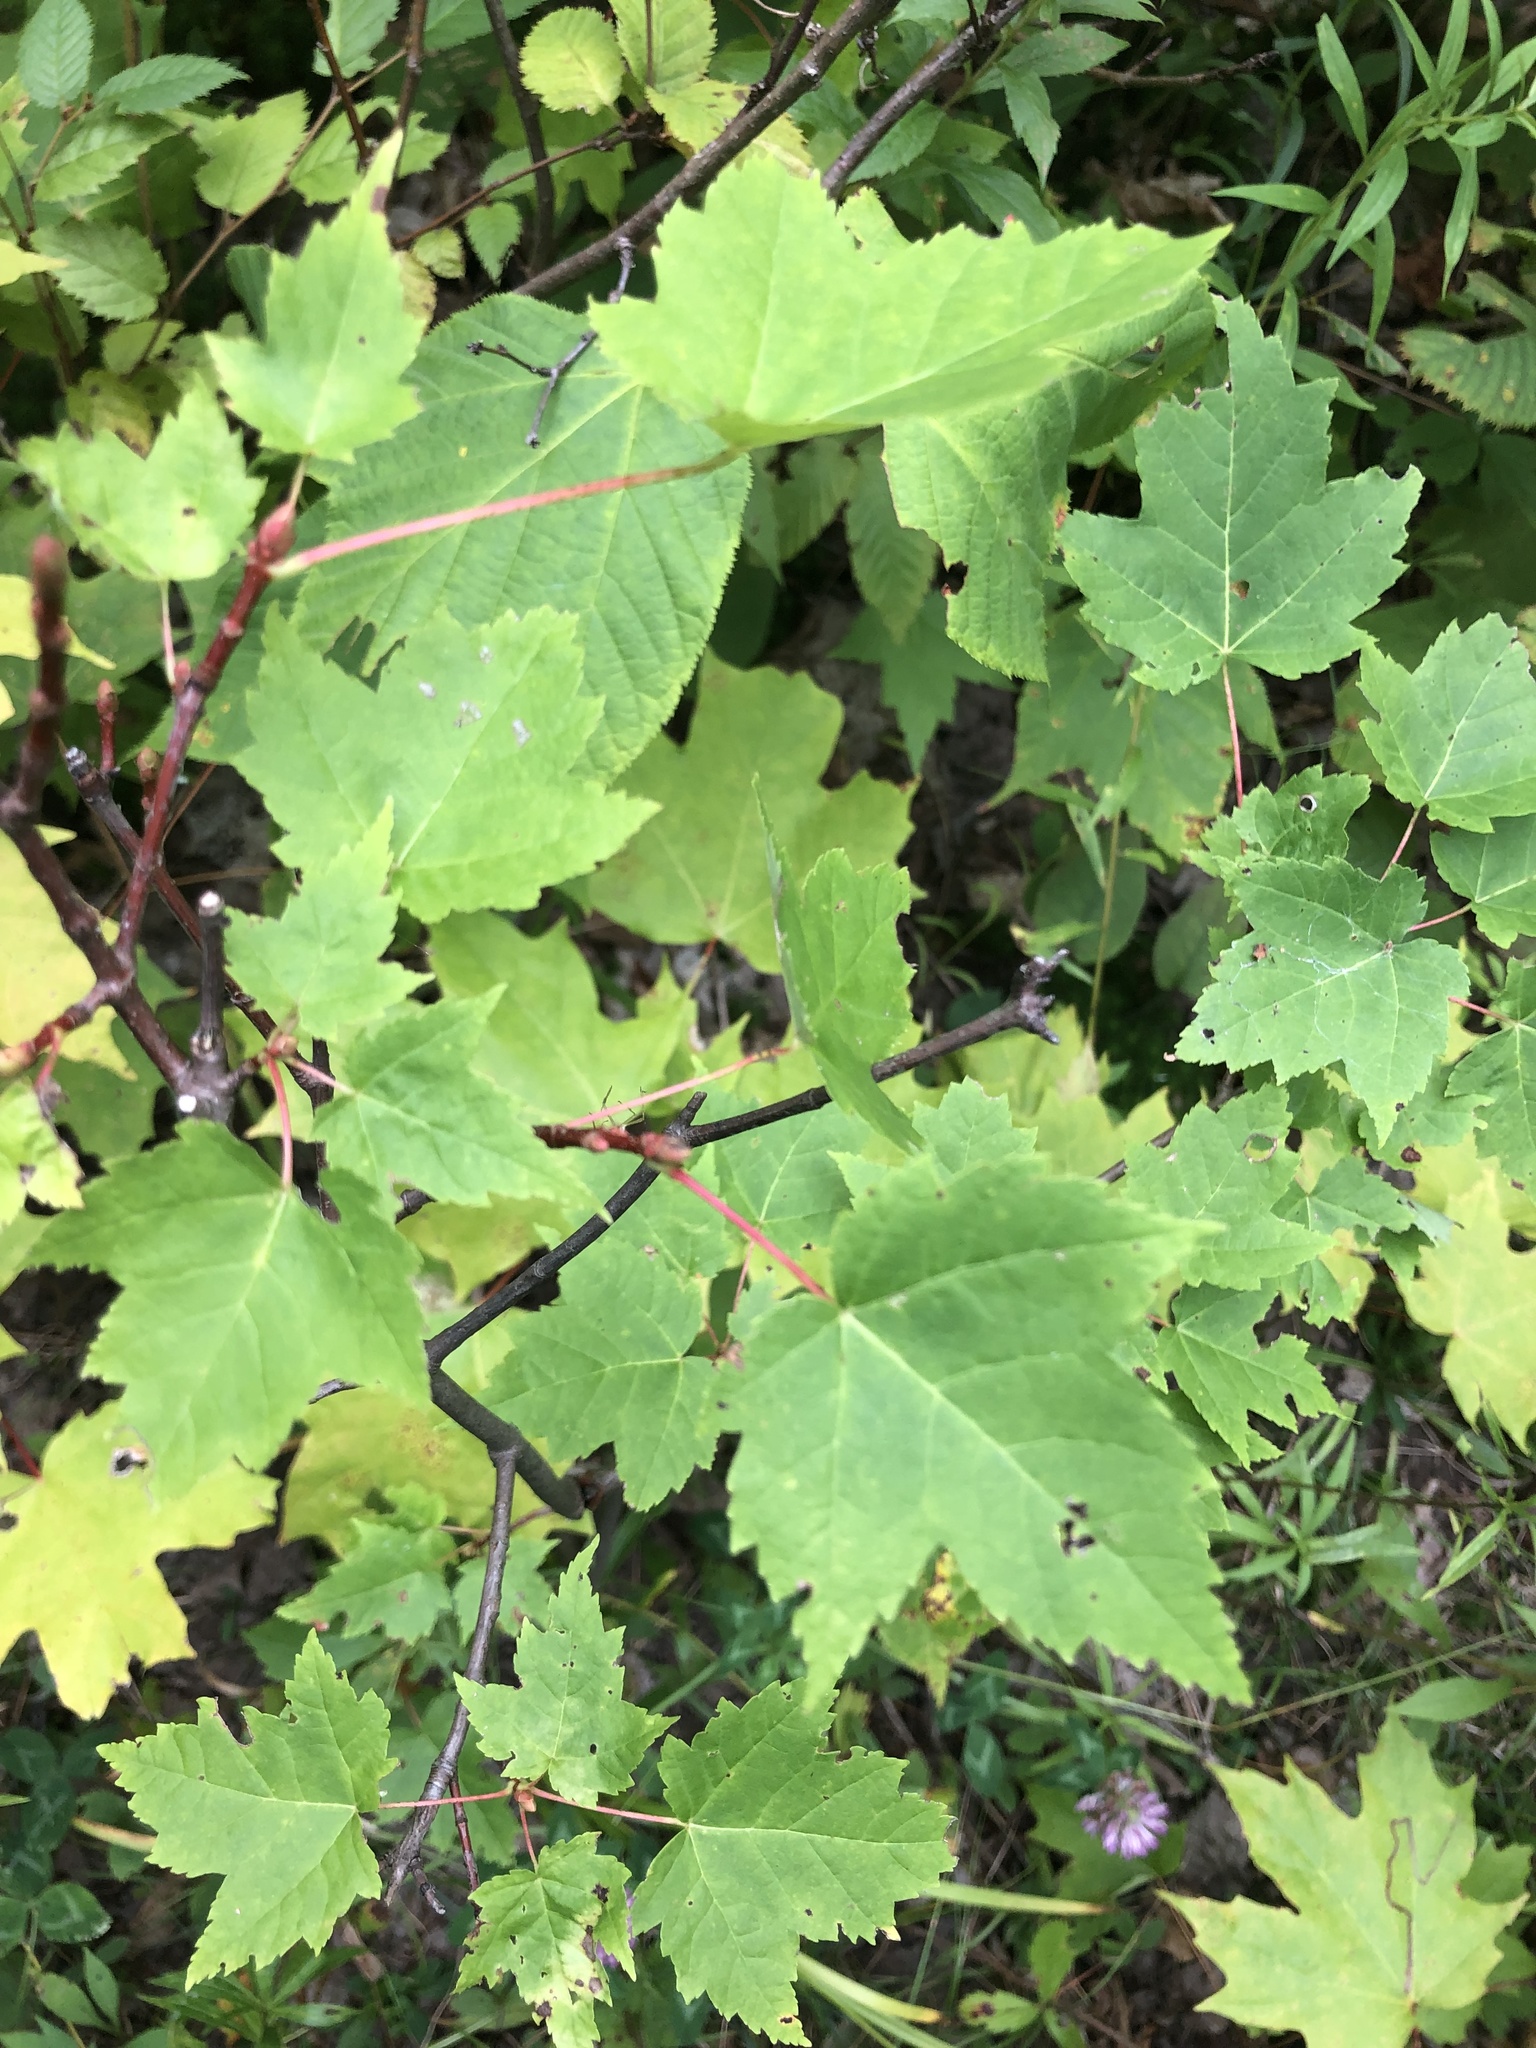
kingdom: Plantae
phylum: Tracheophyta
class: Magnoliopsida
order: Sapindales
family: Sapindaceae
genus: Acer
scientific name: Acer rubrum
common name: Red maple
